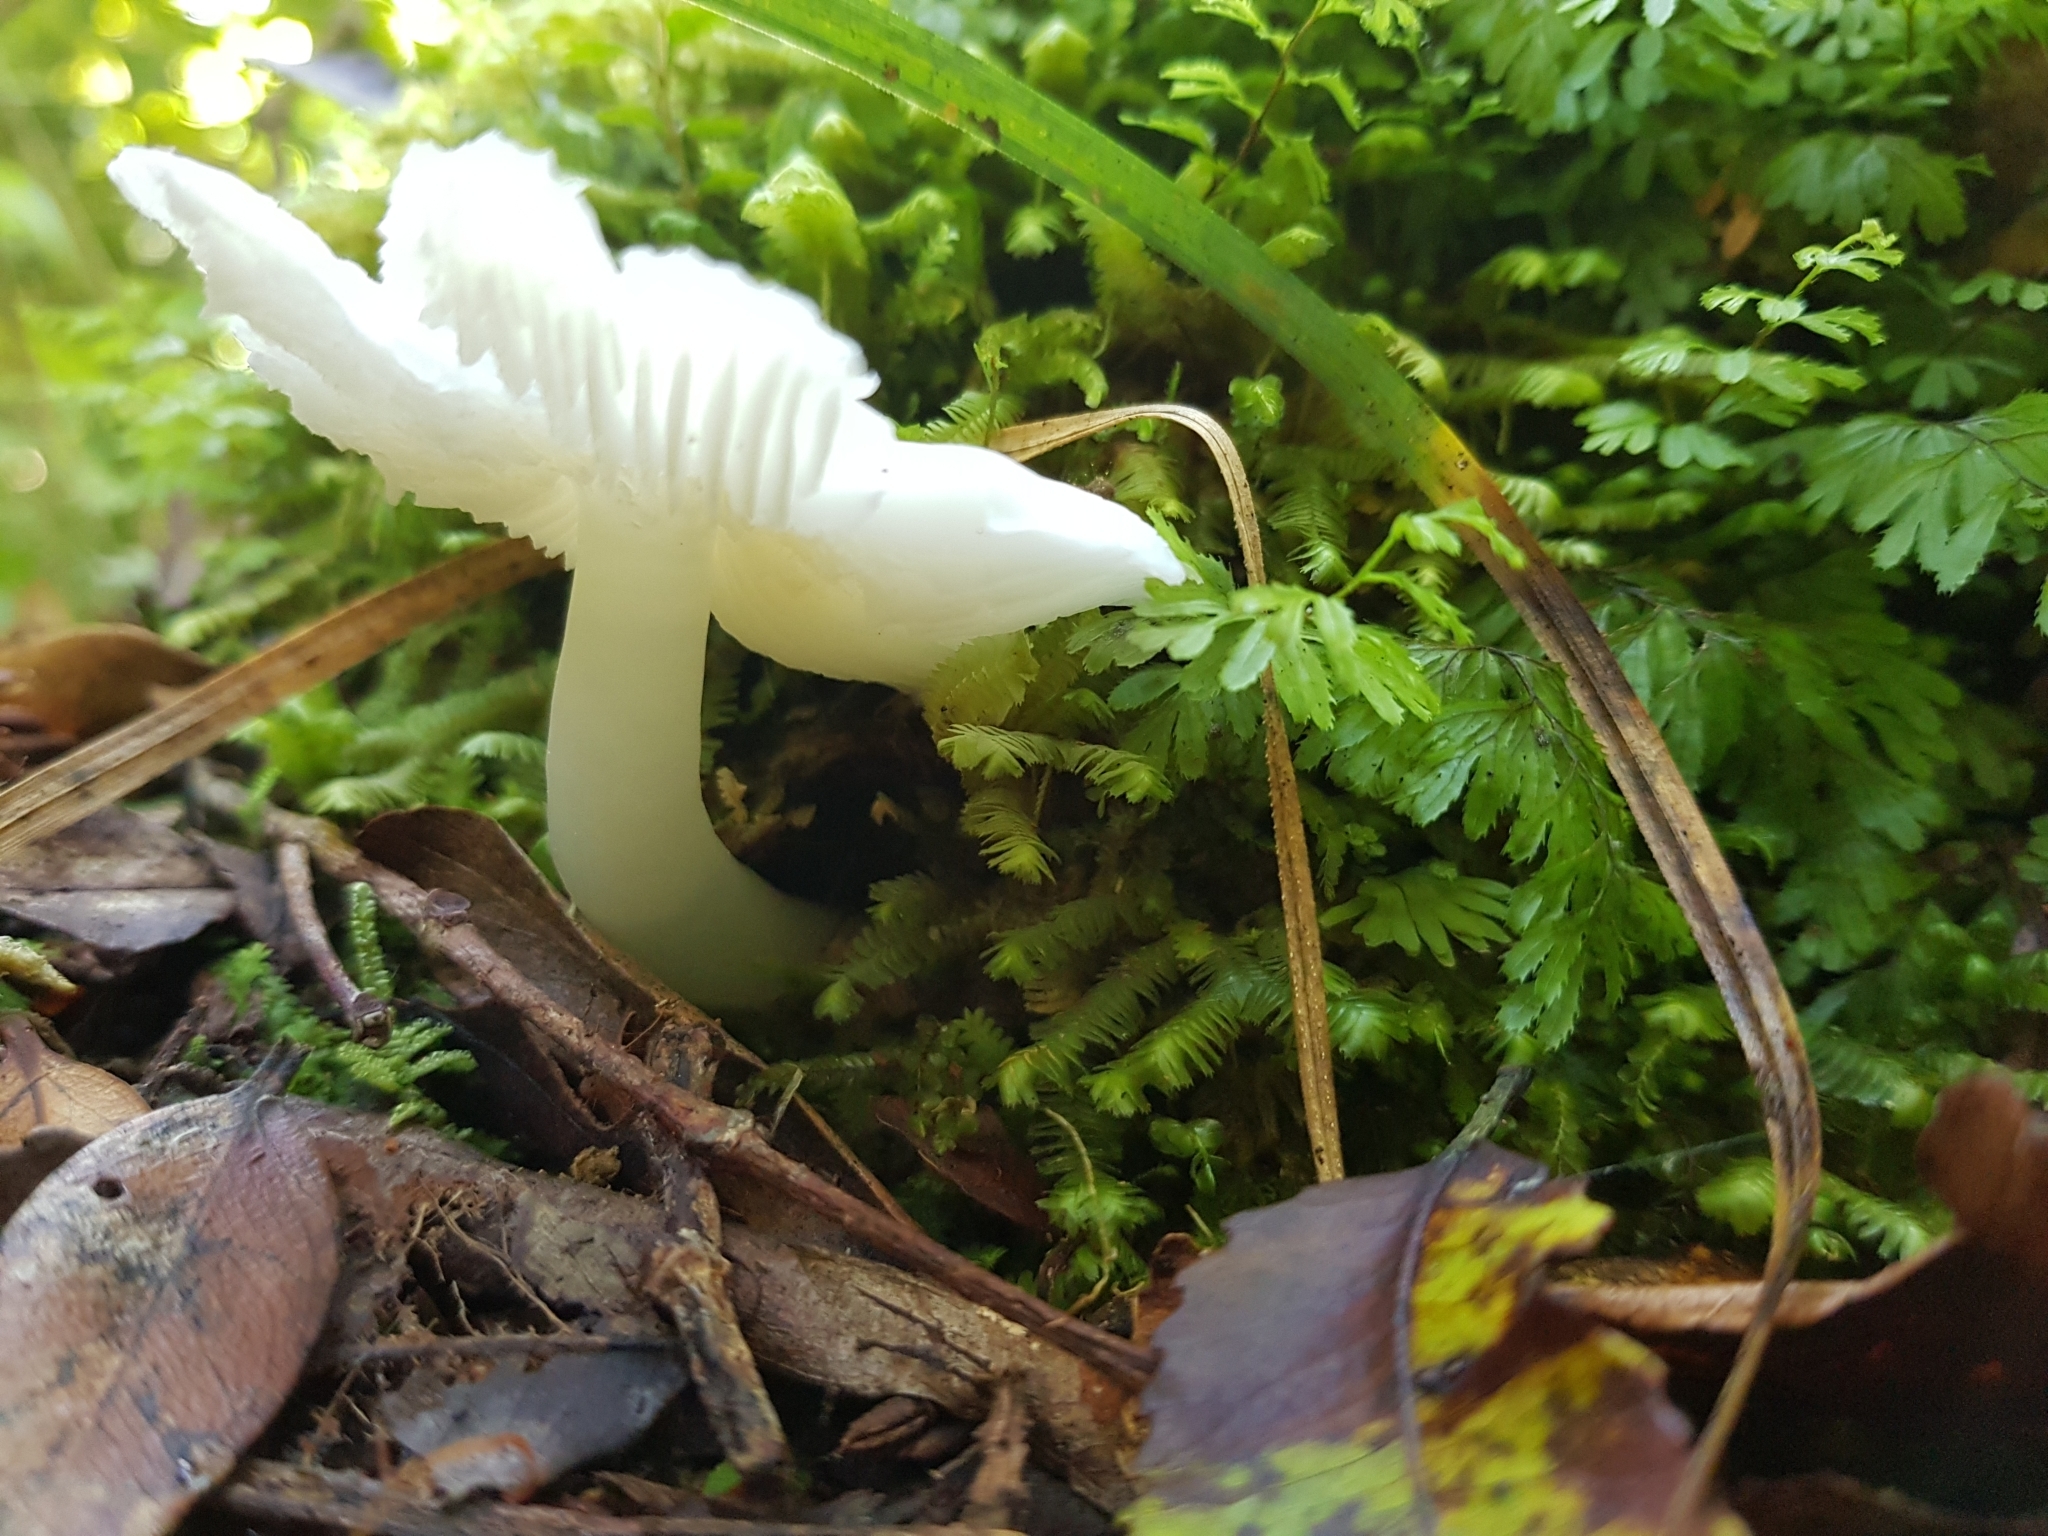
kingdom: Fungi
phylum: Basidiomycota
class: Agaricomycetes
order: Agaricales
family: Hygrophoraceae
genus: Humidicutis
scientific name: Humidicutis mavis
